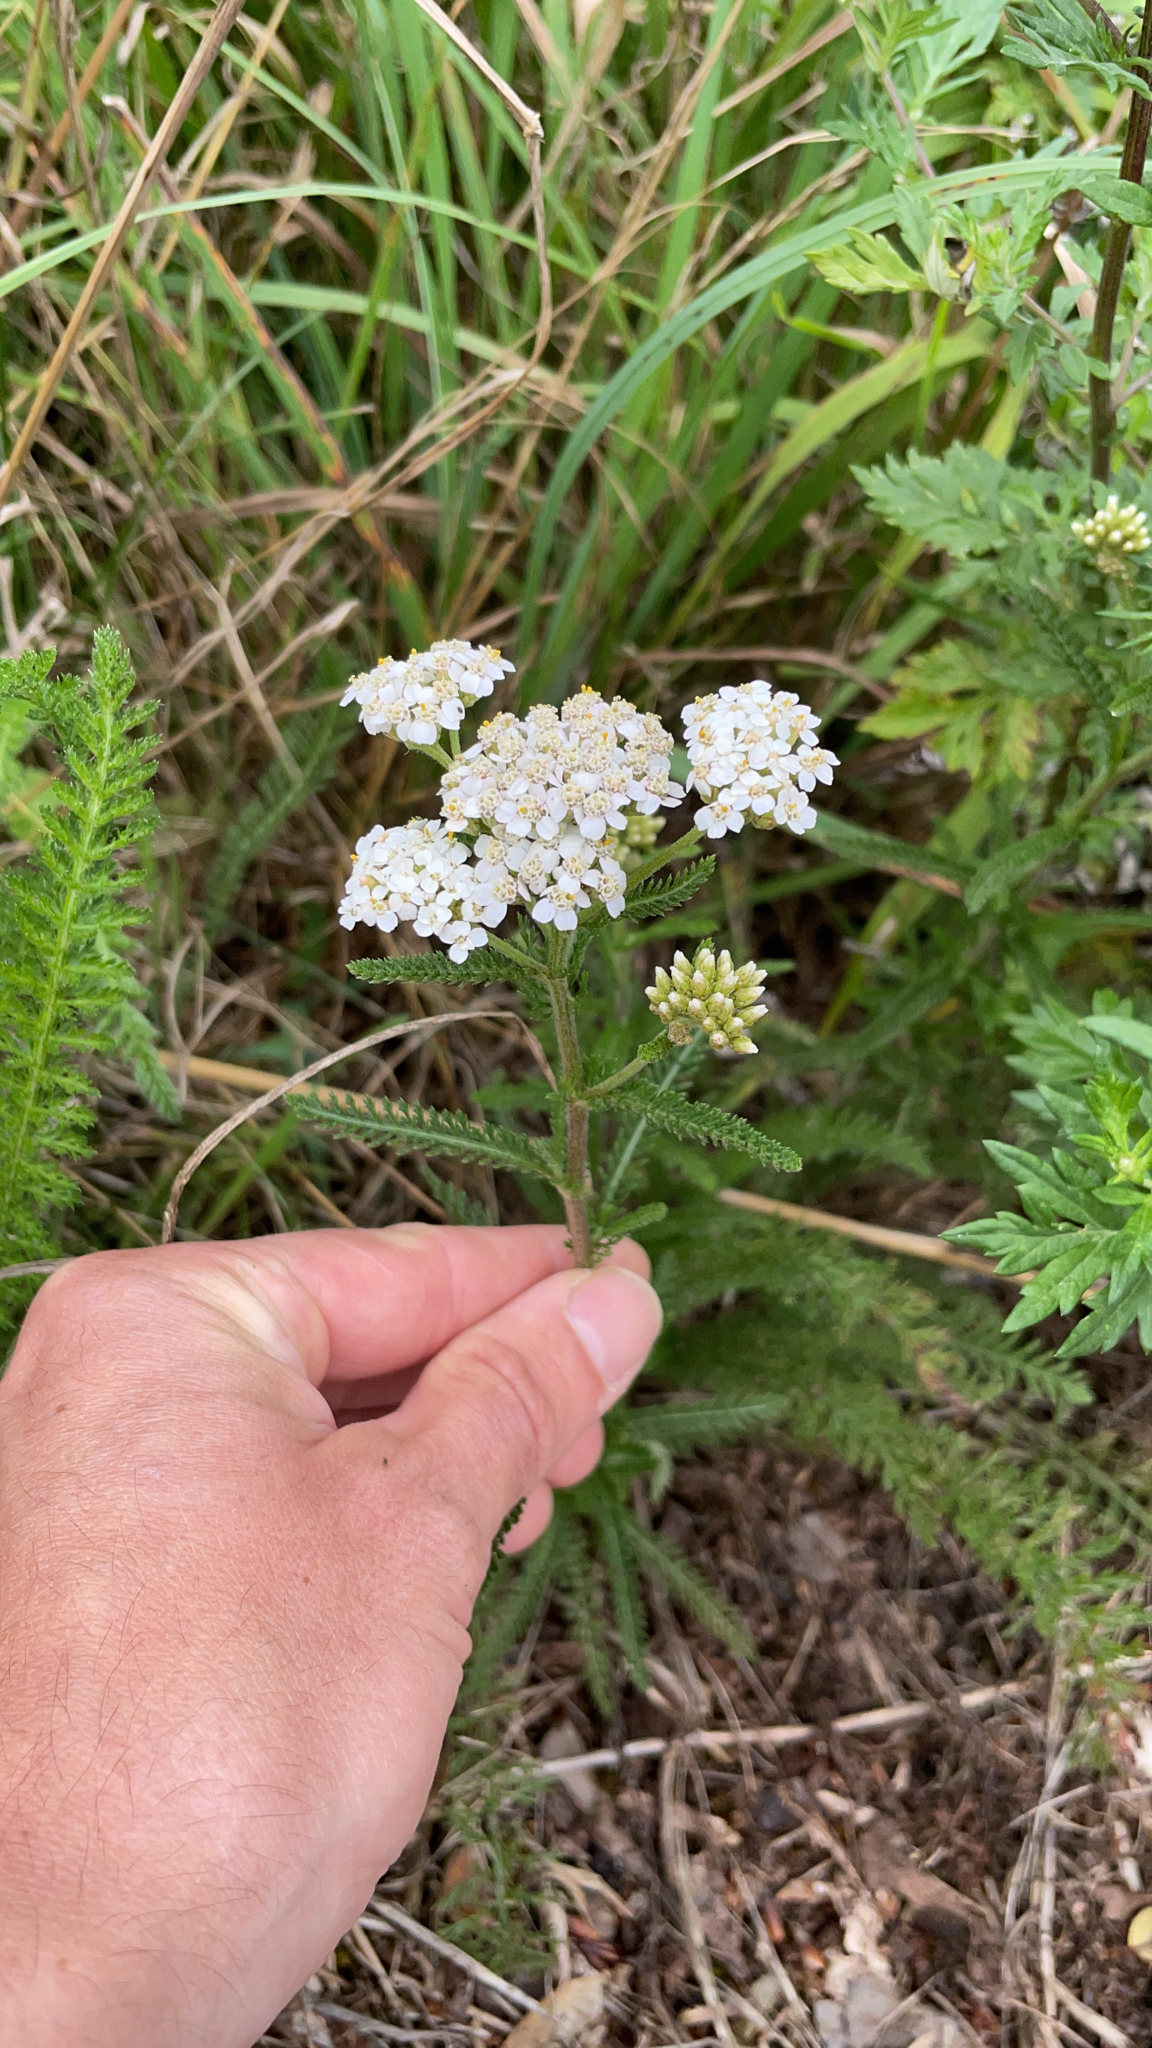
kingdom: Plantae
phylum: Tracheophyta
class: Magnoliopsida
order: Asterales
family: Asteraceae
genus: Achillea
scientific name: Achillea
